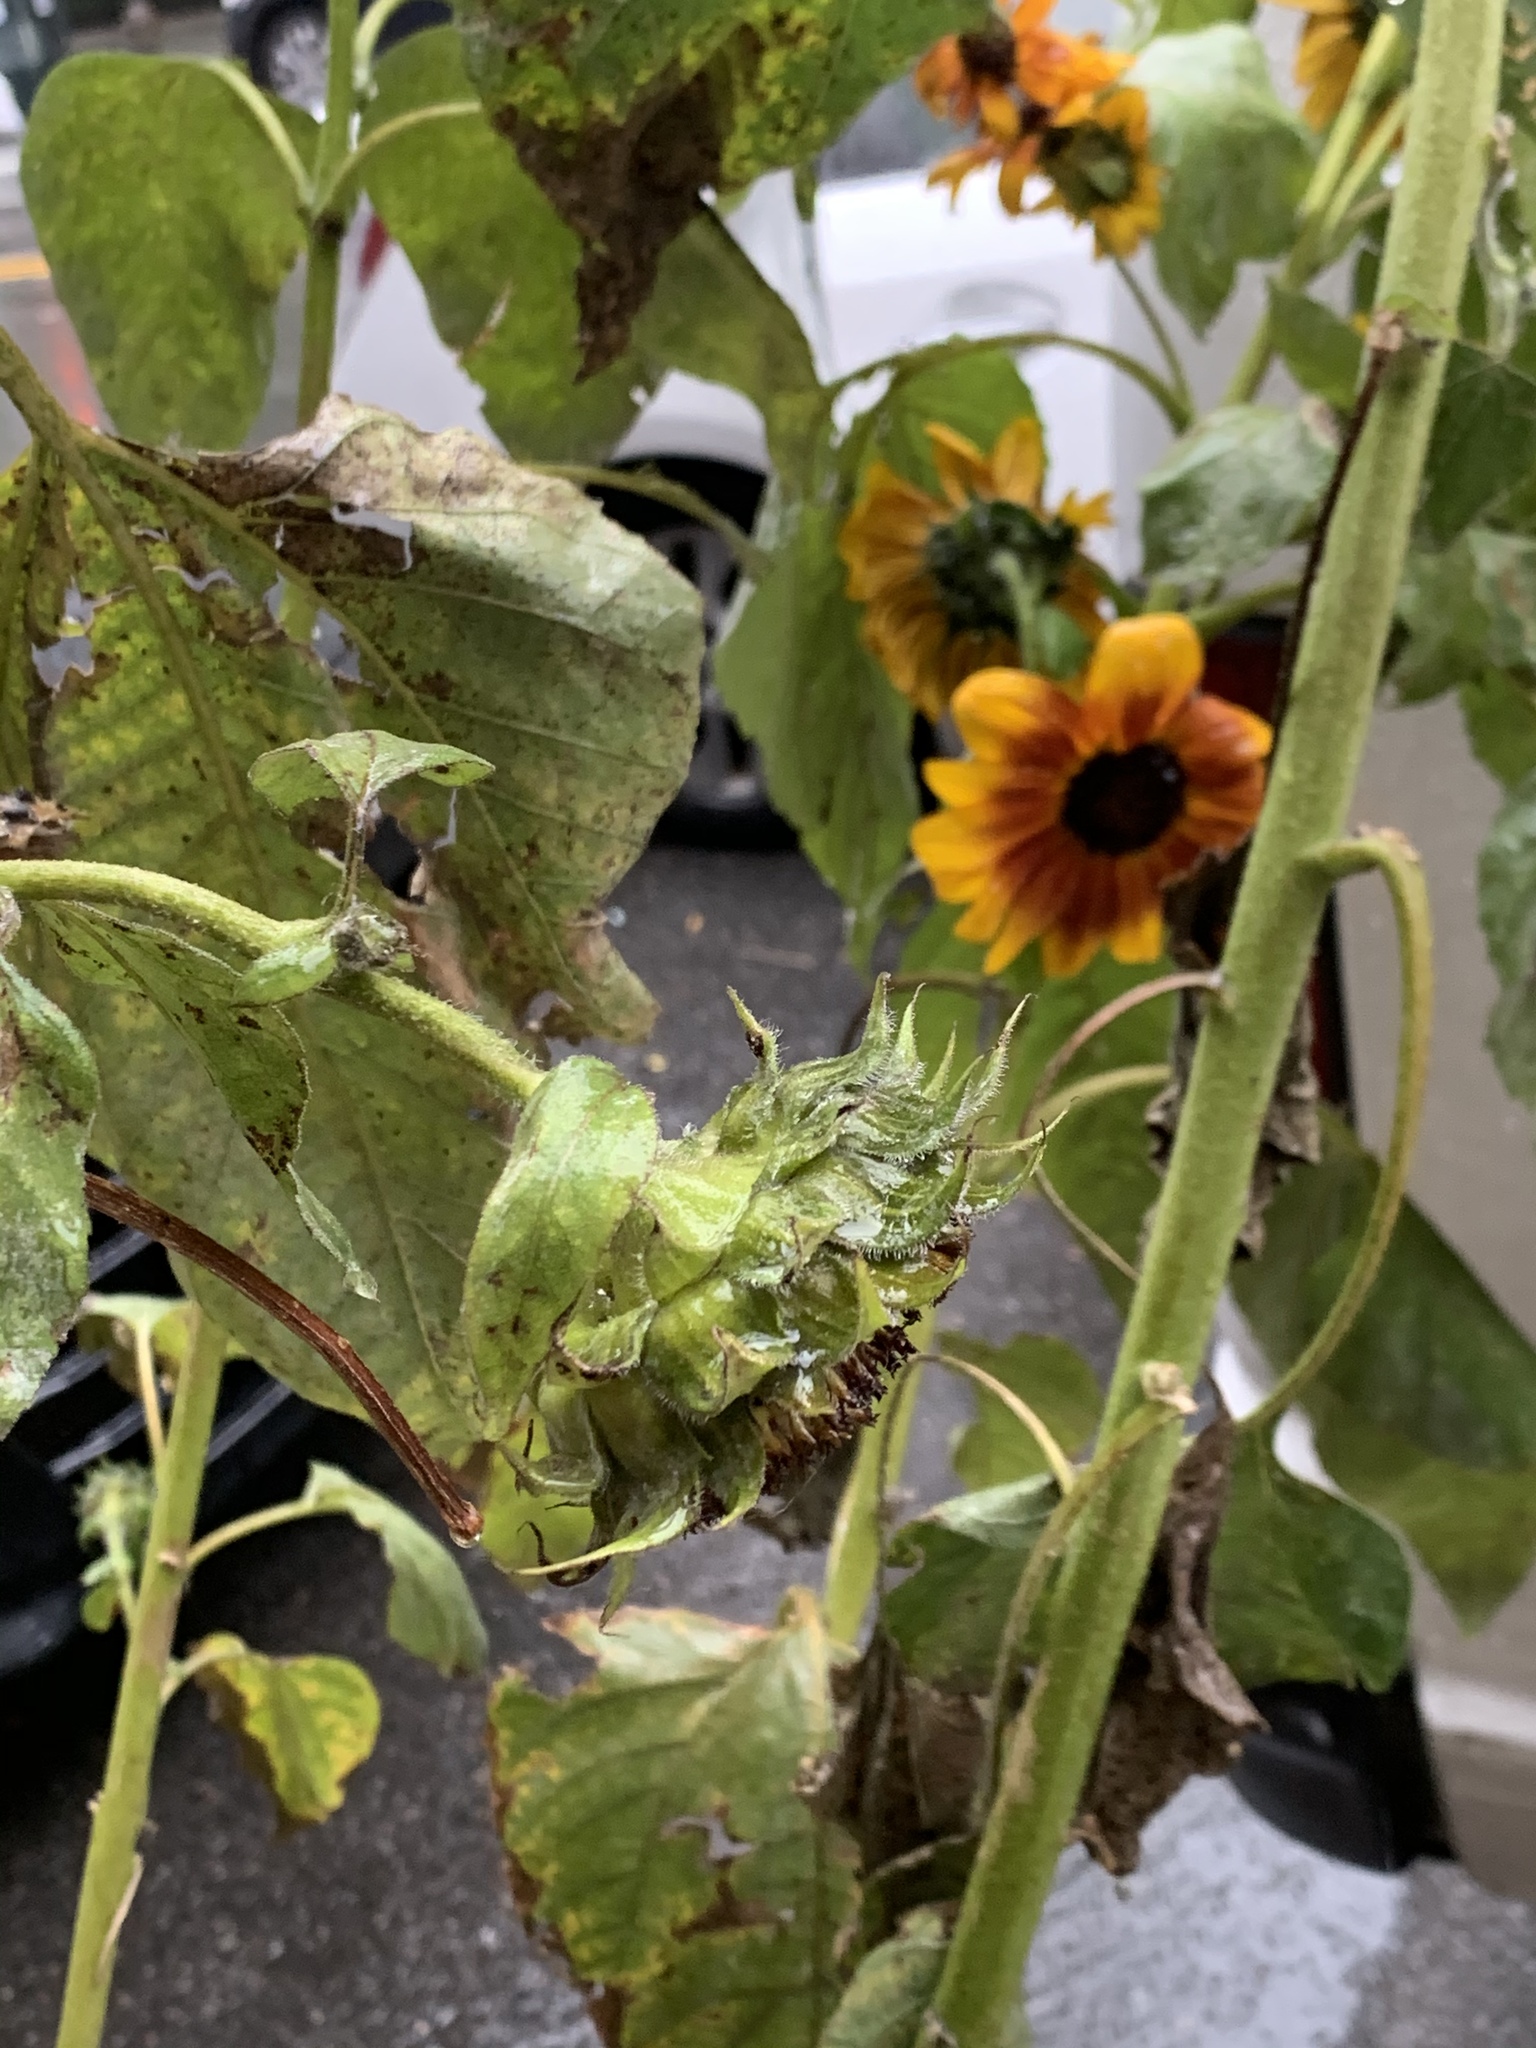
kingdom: Plantae
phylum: Tracheophyta
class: Magnoliopsida
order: Asterales
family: Asteraceae
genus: Helianthus
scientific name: Helianthus annuus
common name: Sunflower
